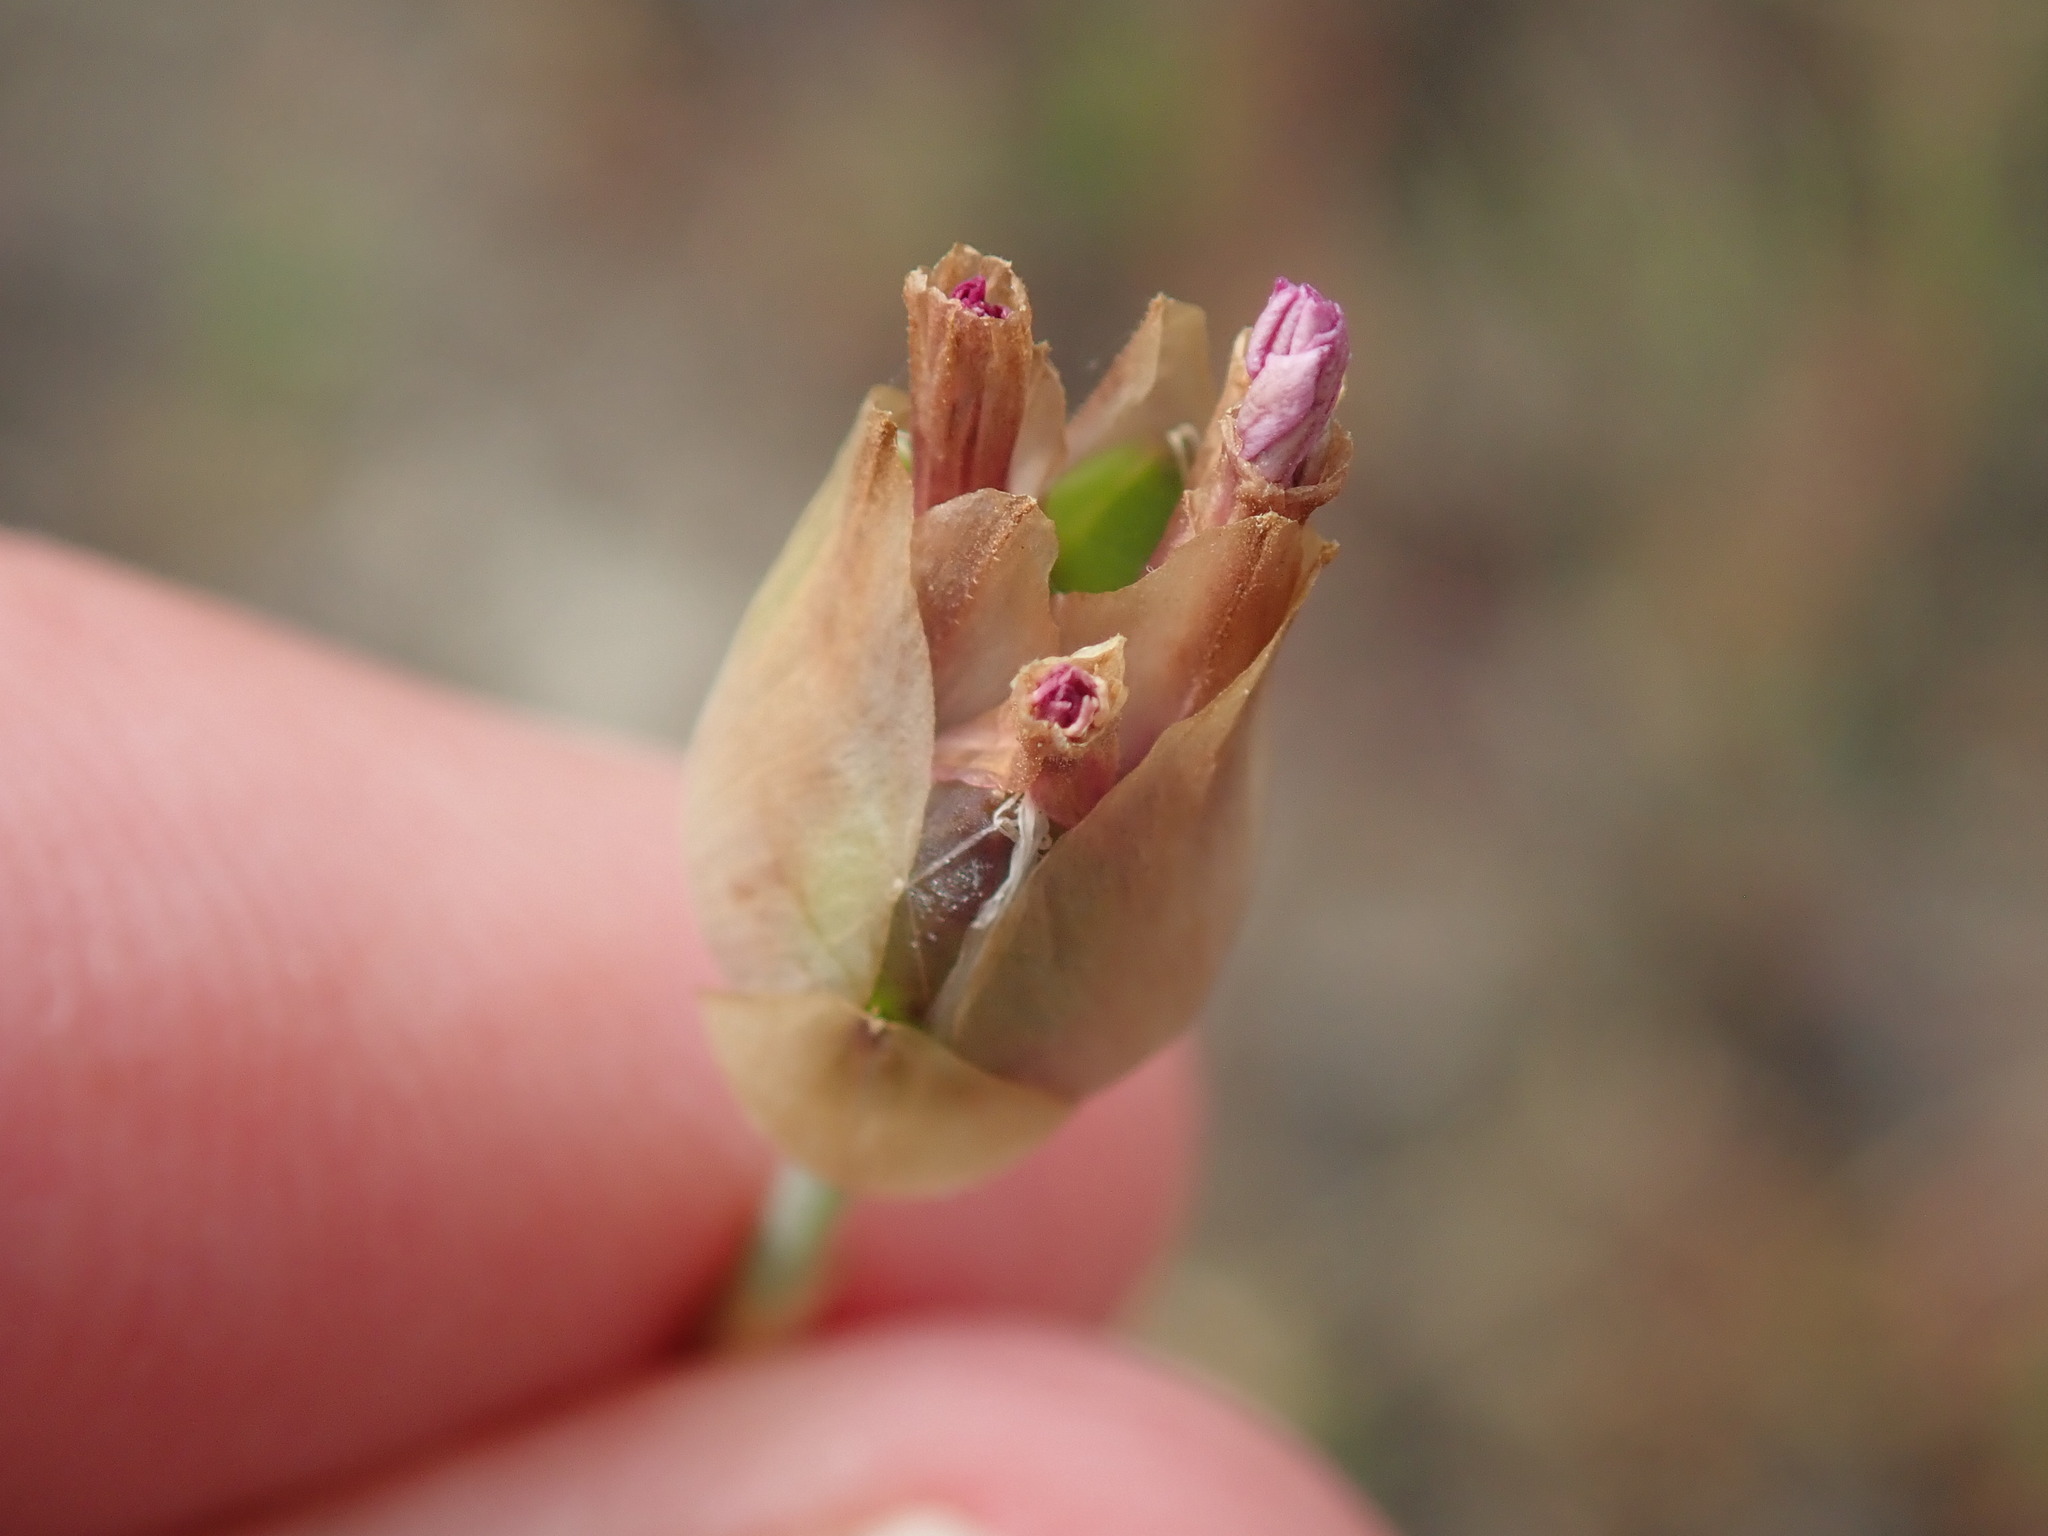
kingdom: Plantae
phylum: Tracheophyta
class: Magnoliopsida
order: Caryophyllales
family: Caryophyllaceae
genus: Petrorhagia
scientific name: Petrorhagia dubia
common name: Hairypink
